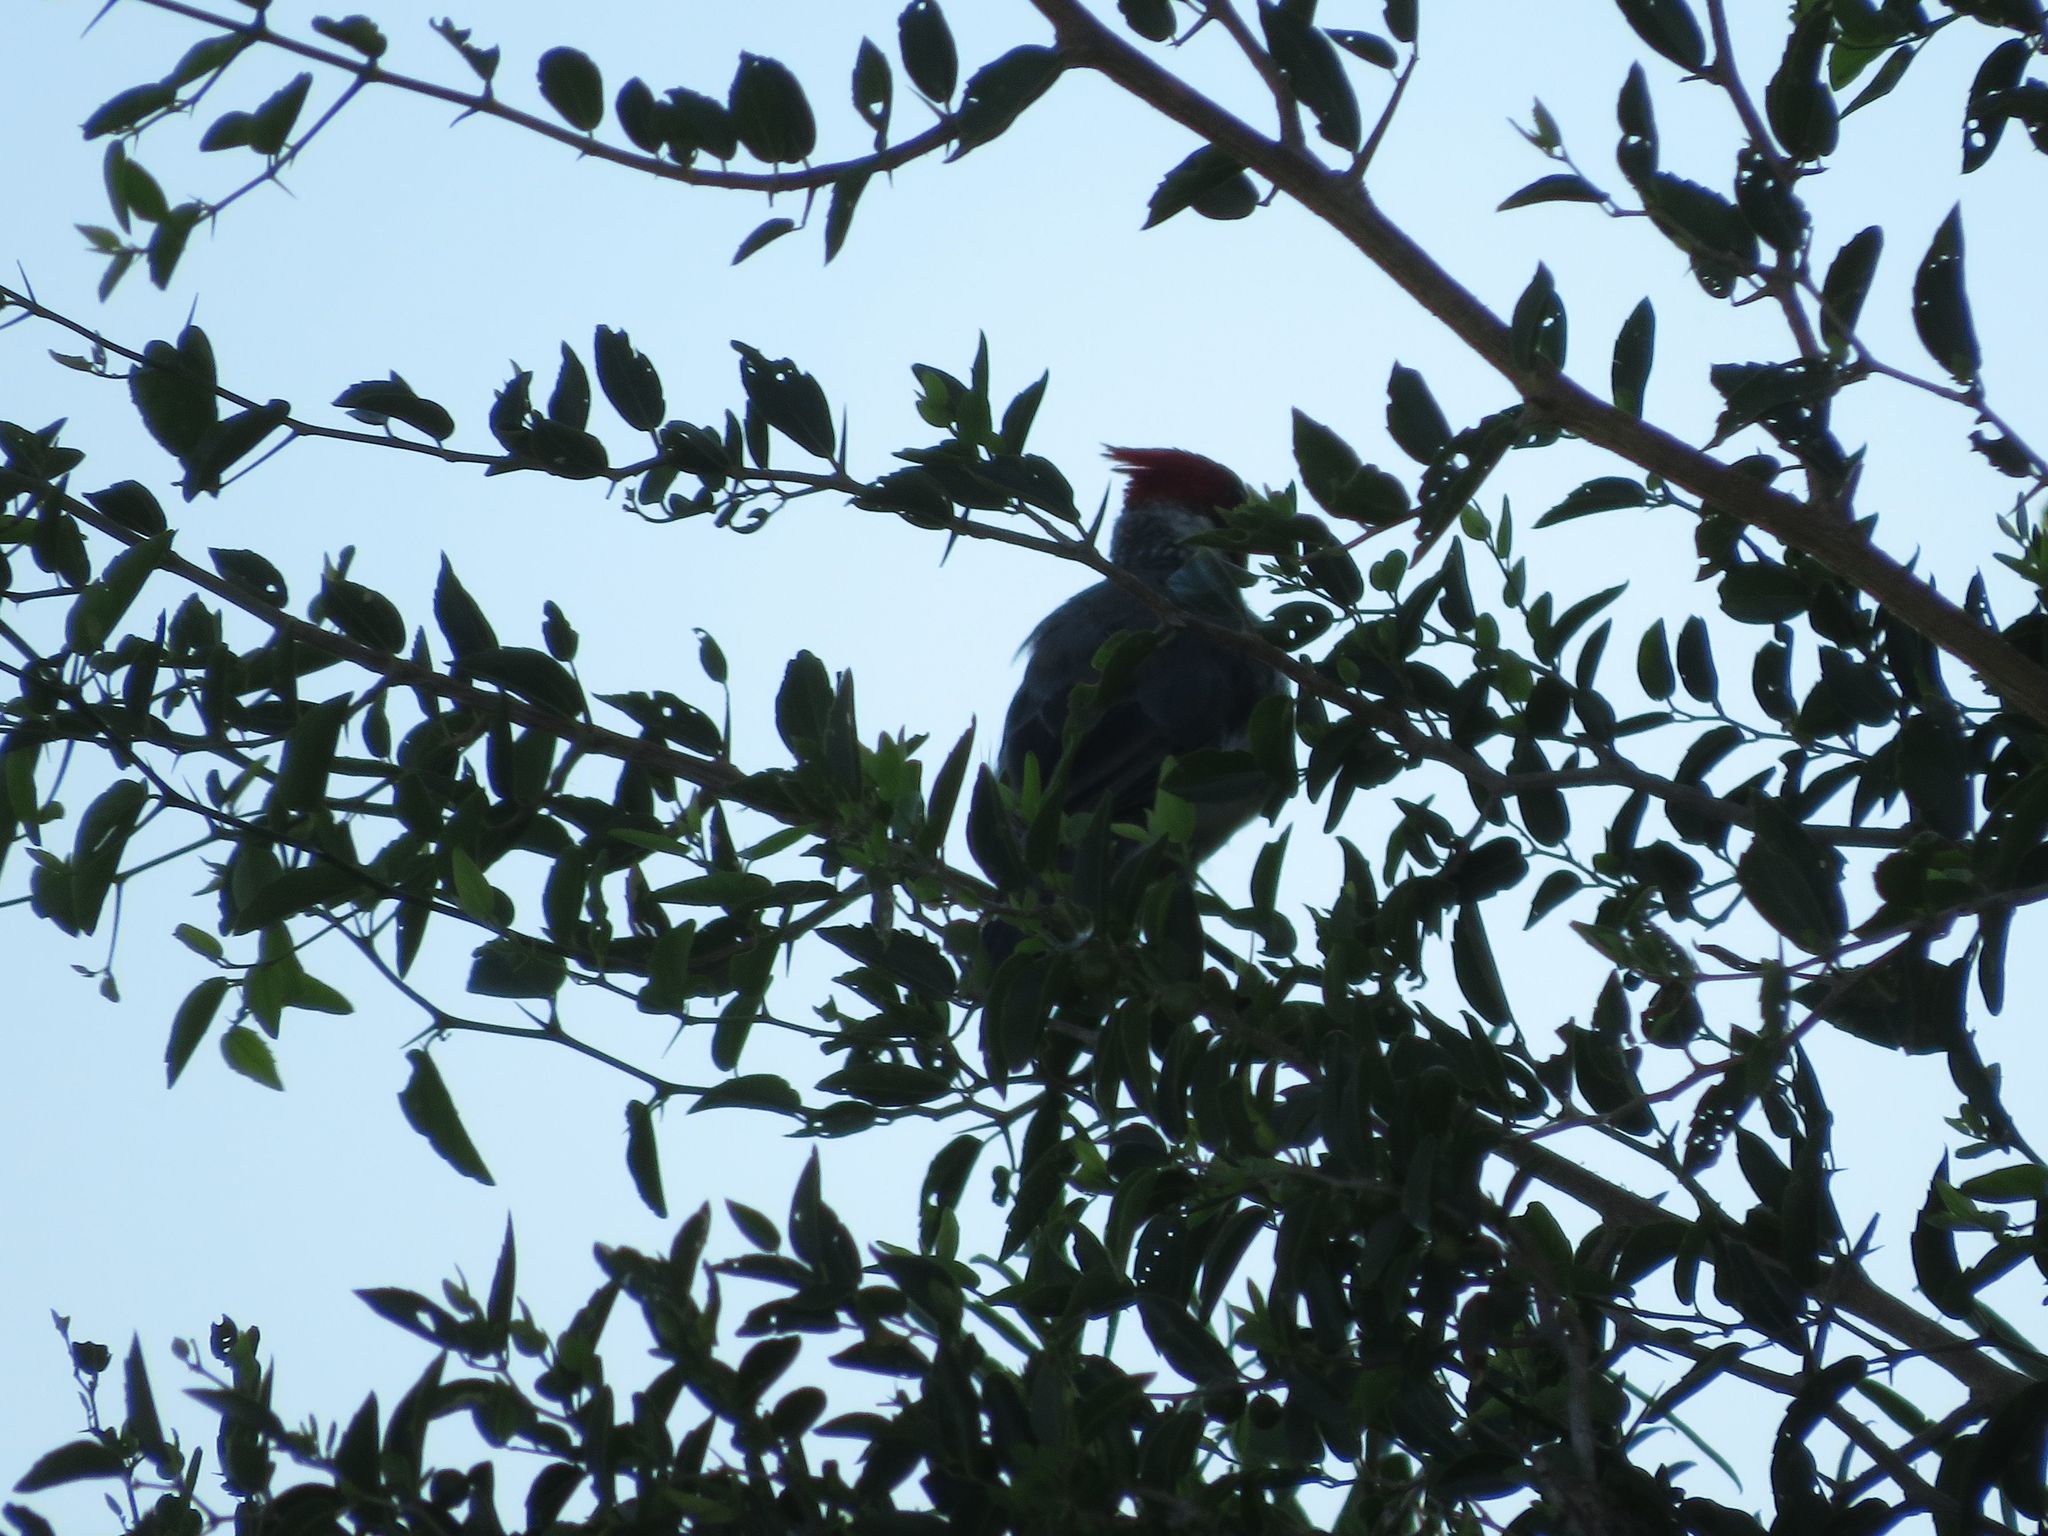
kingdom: Animalia
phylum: Chordata
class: Aves
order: Passeriformes
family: Thraupidae
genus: Paroaria
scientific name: Paroaria coronata
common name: Red-crested cardinal
